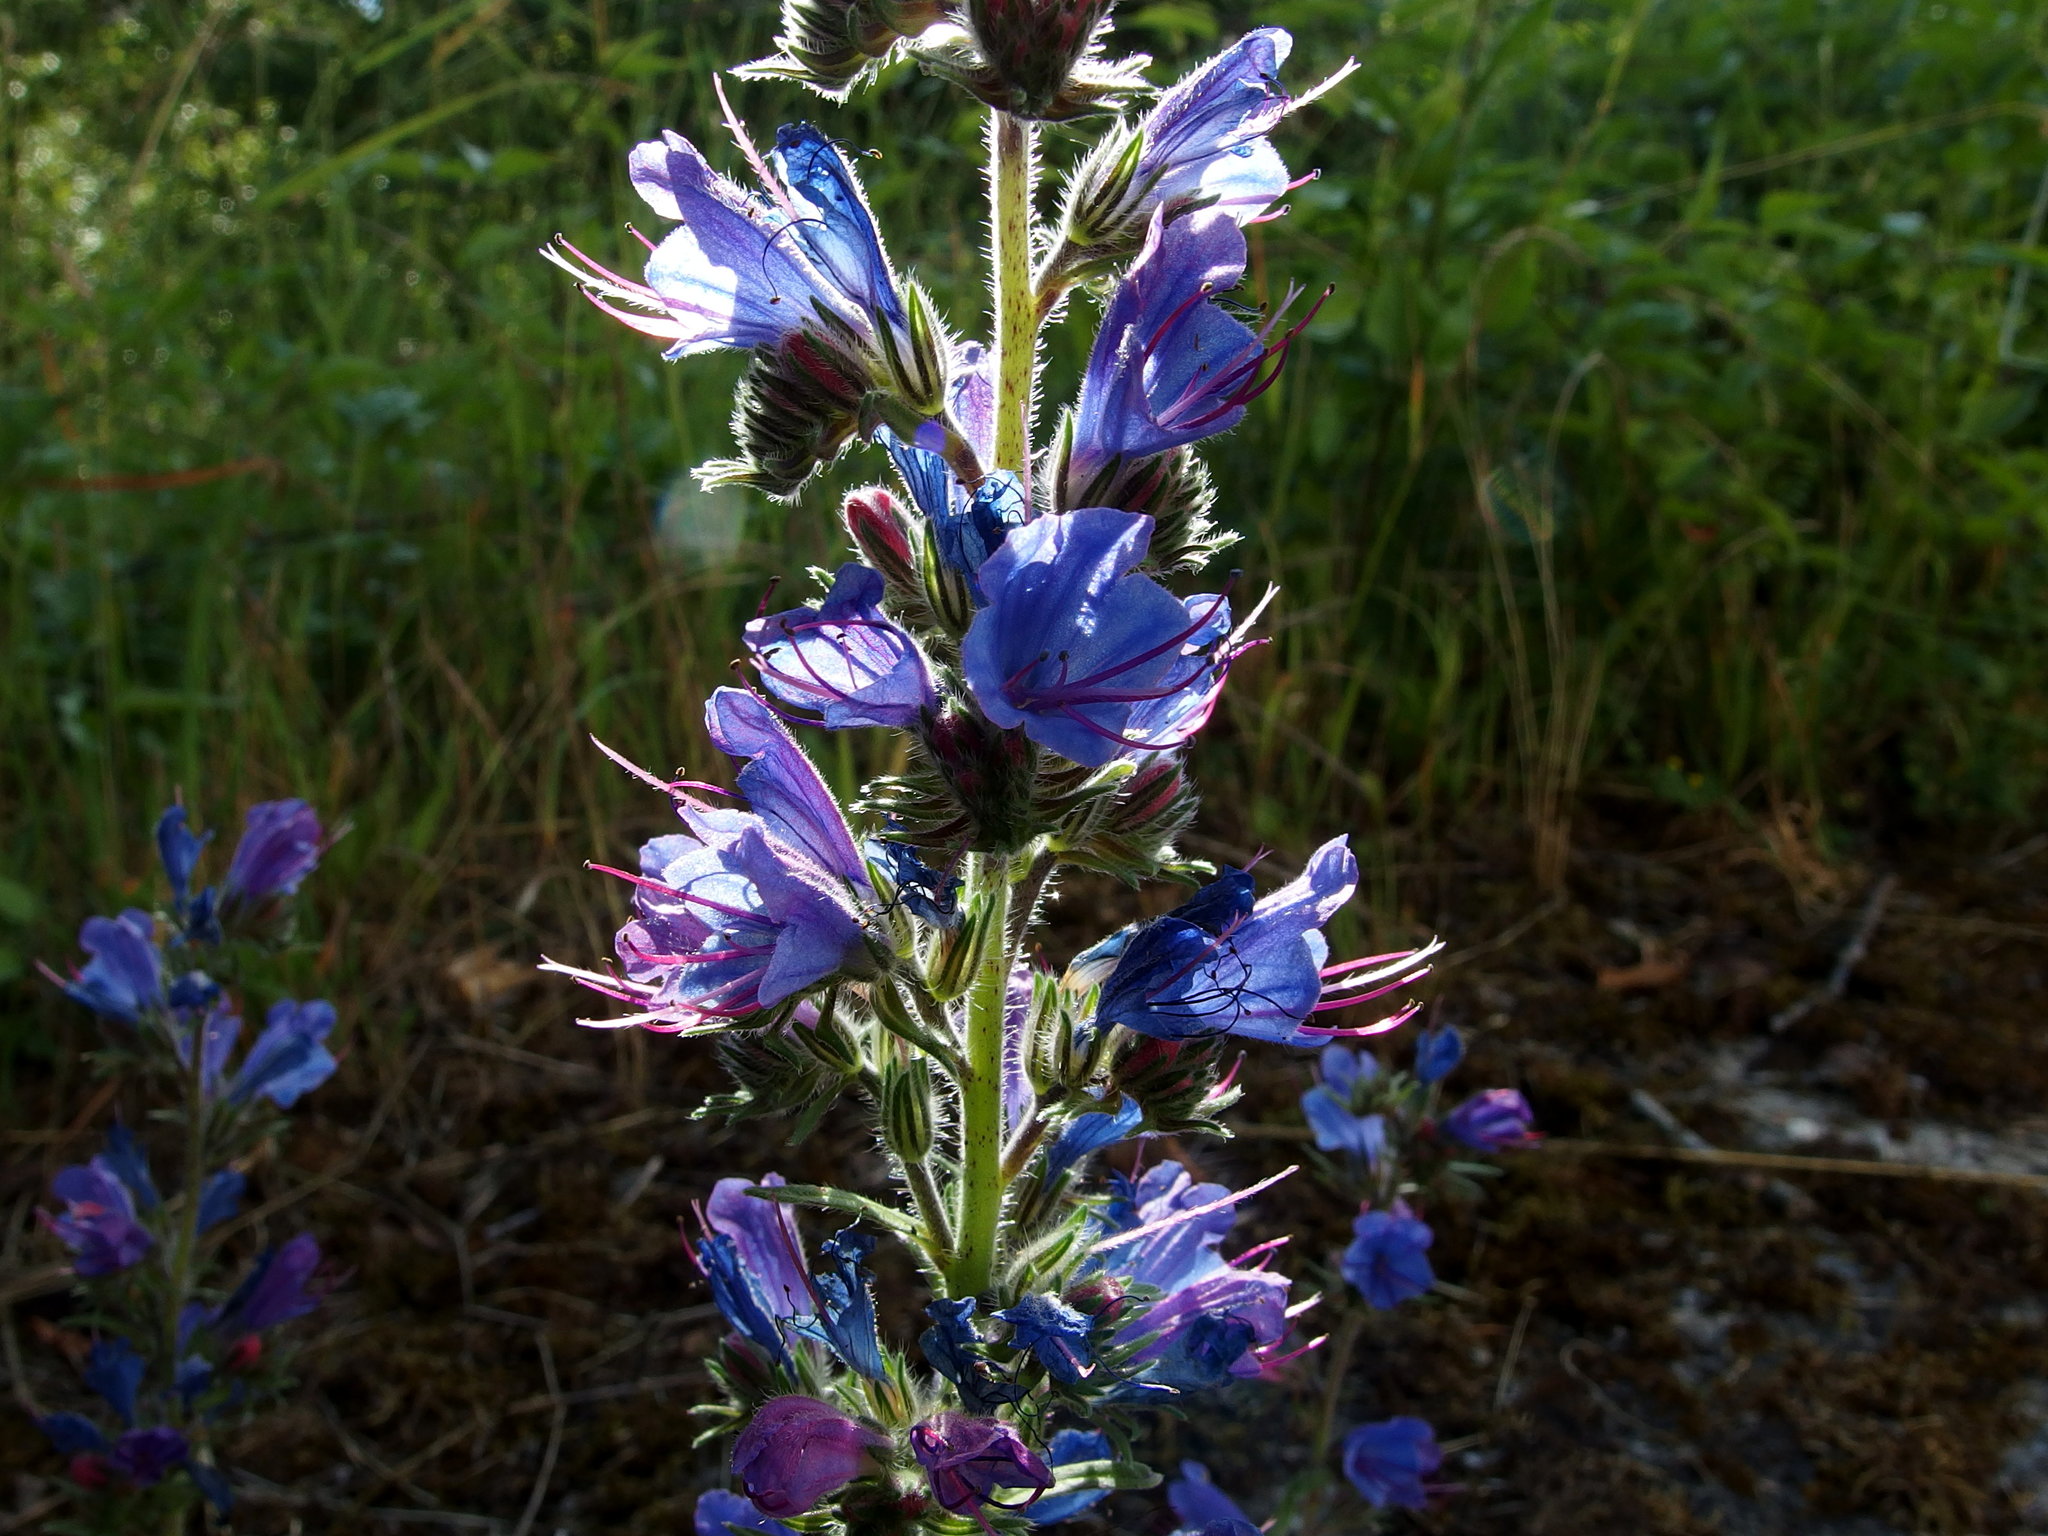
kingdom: Plantae
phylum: Tracheophyta
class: Magnoliopsida
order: Boraginales
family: Boraginaceae
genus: Echium
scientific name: Echium vulgare
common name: Common viper's bugloss
